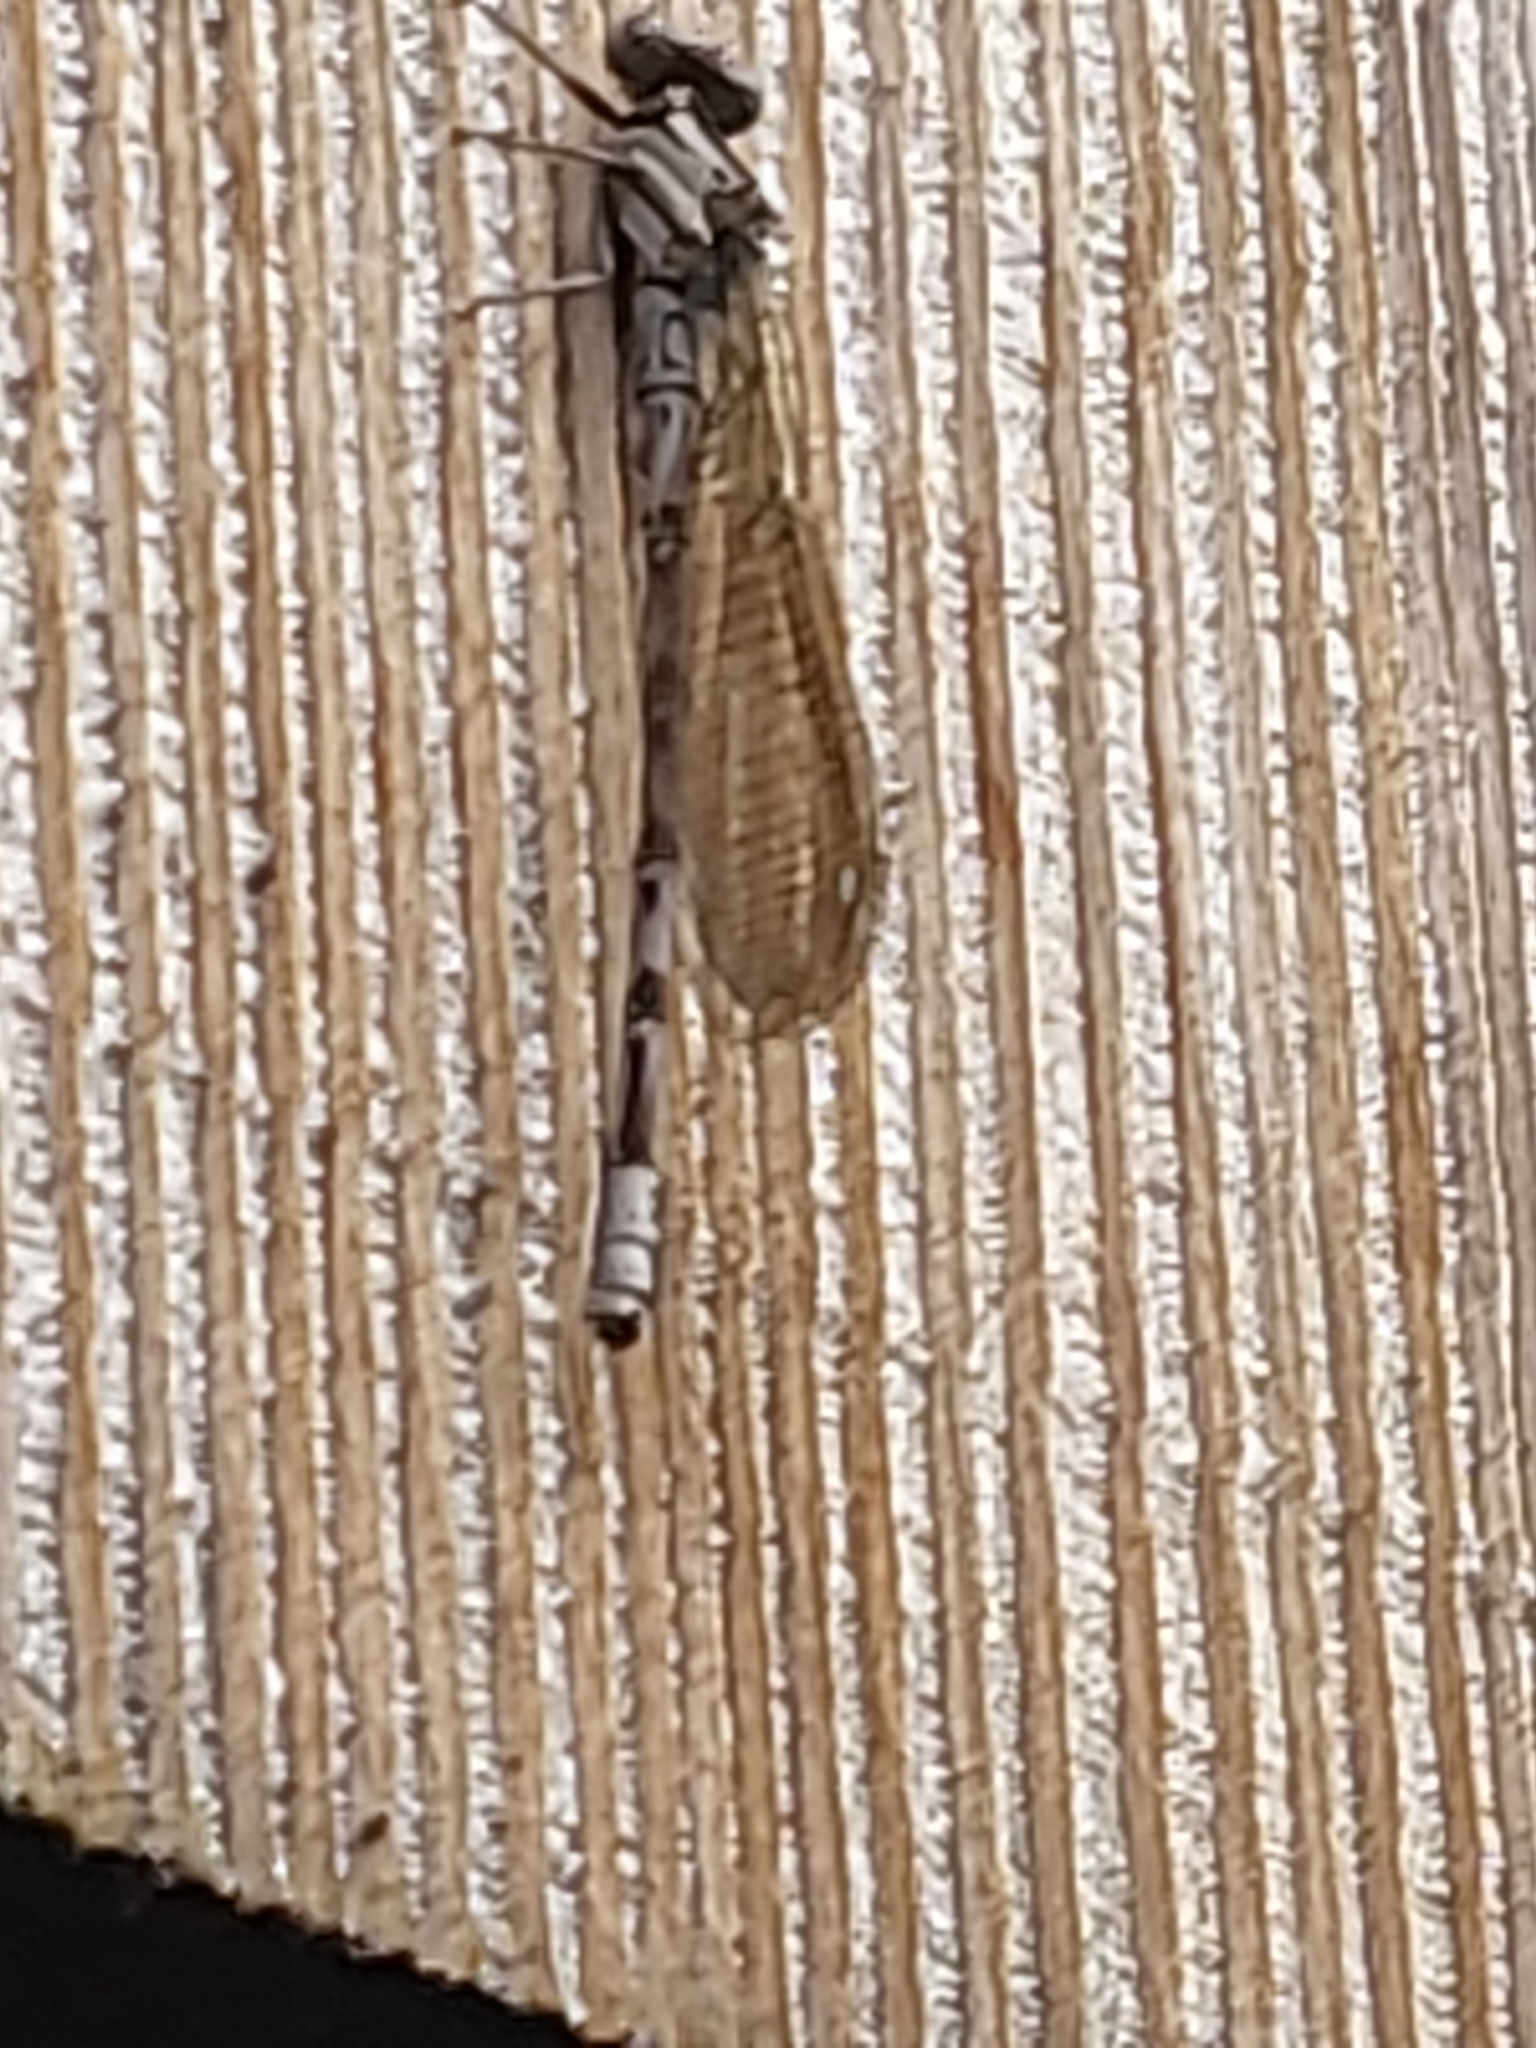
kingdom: Animalia
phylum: Arthropoda
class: Insecta
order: Odonata
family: Coenagrionidae
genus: Argia
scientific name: Argia vivida
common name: Vivid dancer
